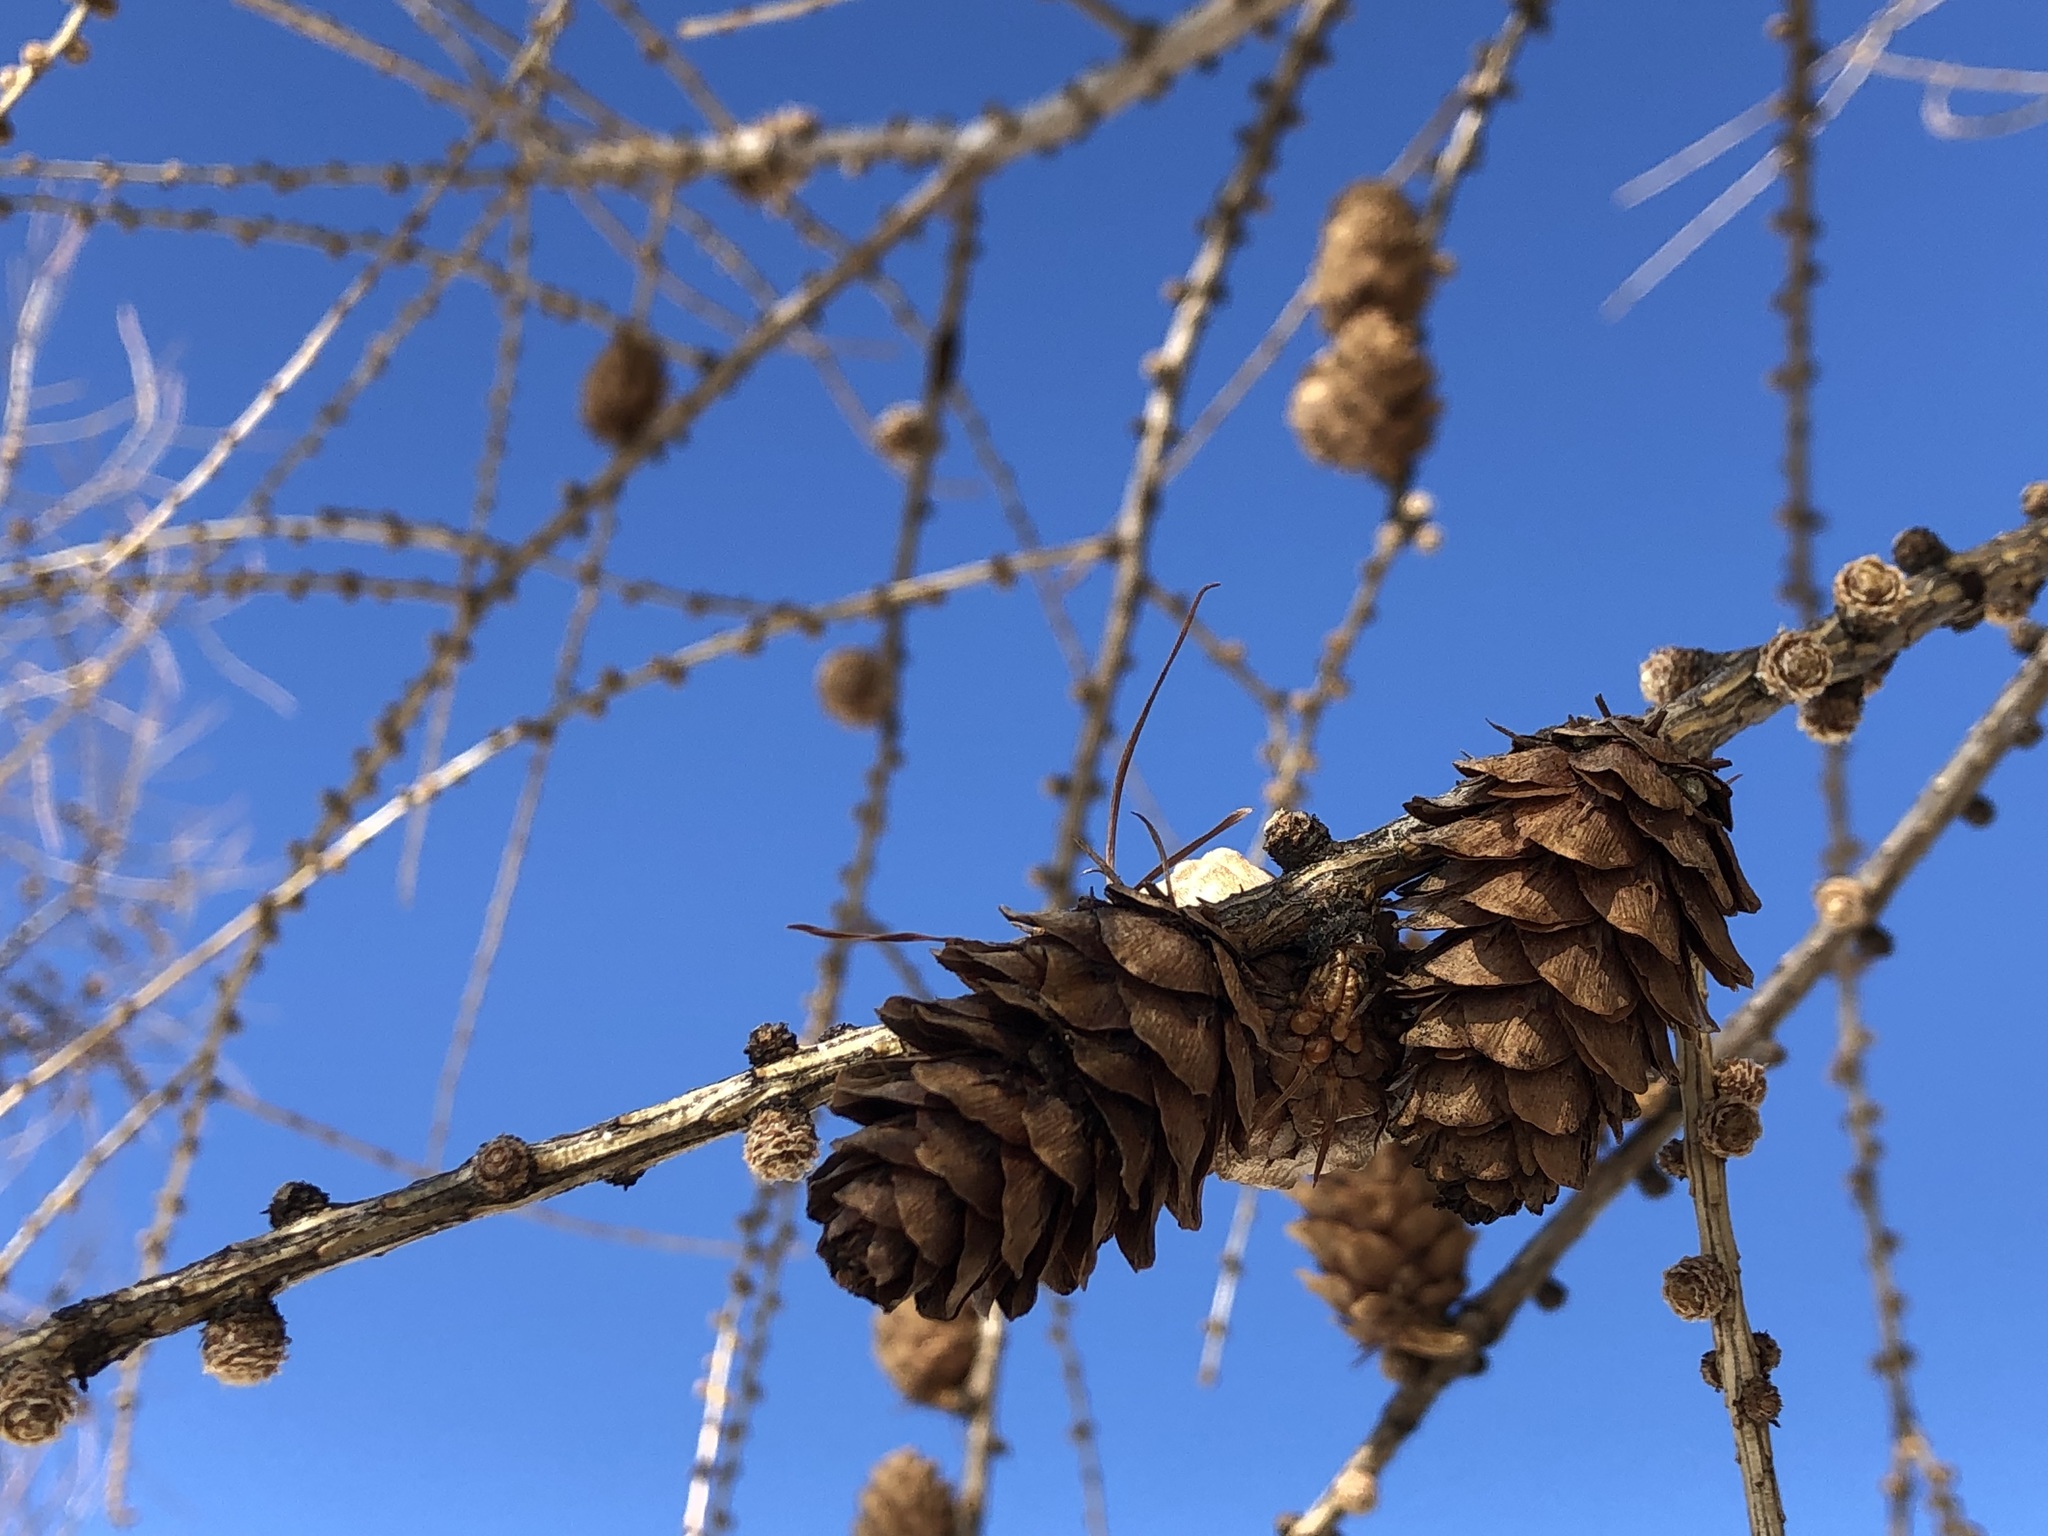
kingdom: Plantae
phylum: Tracheophyta
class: Pinopsida
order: Pinales
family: Pinaceae
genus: Larix
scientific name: Larix decidua
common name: European larch
